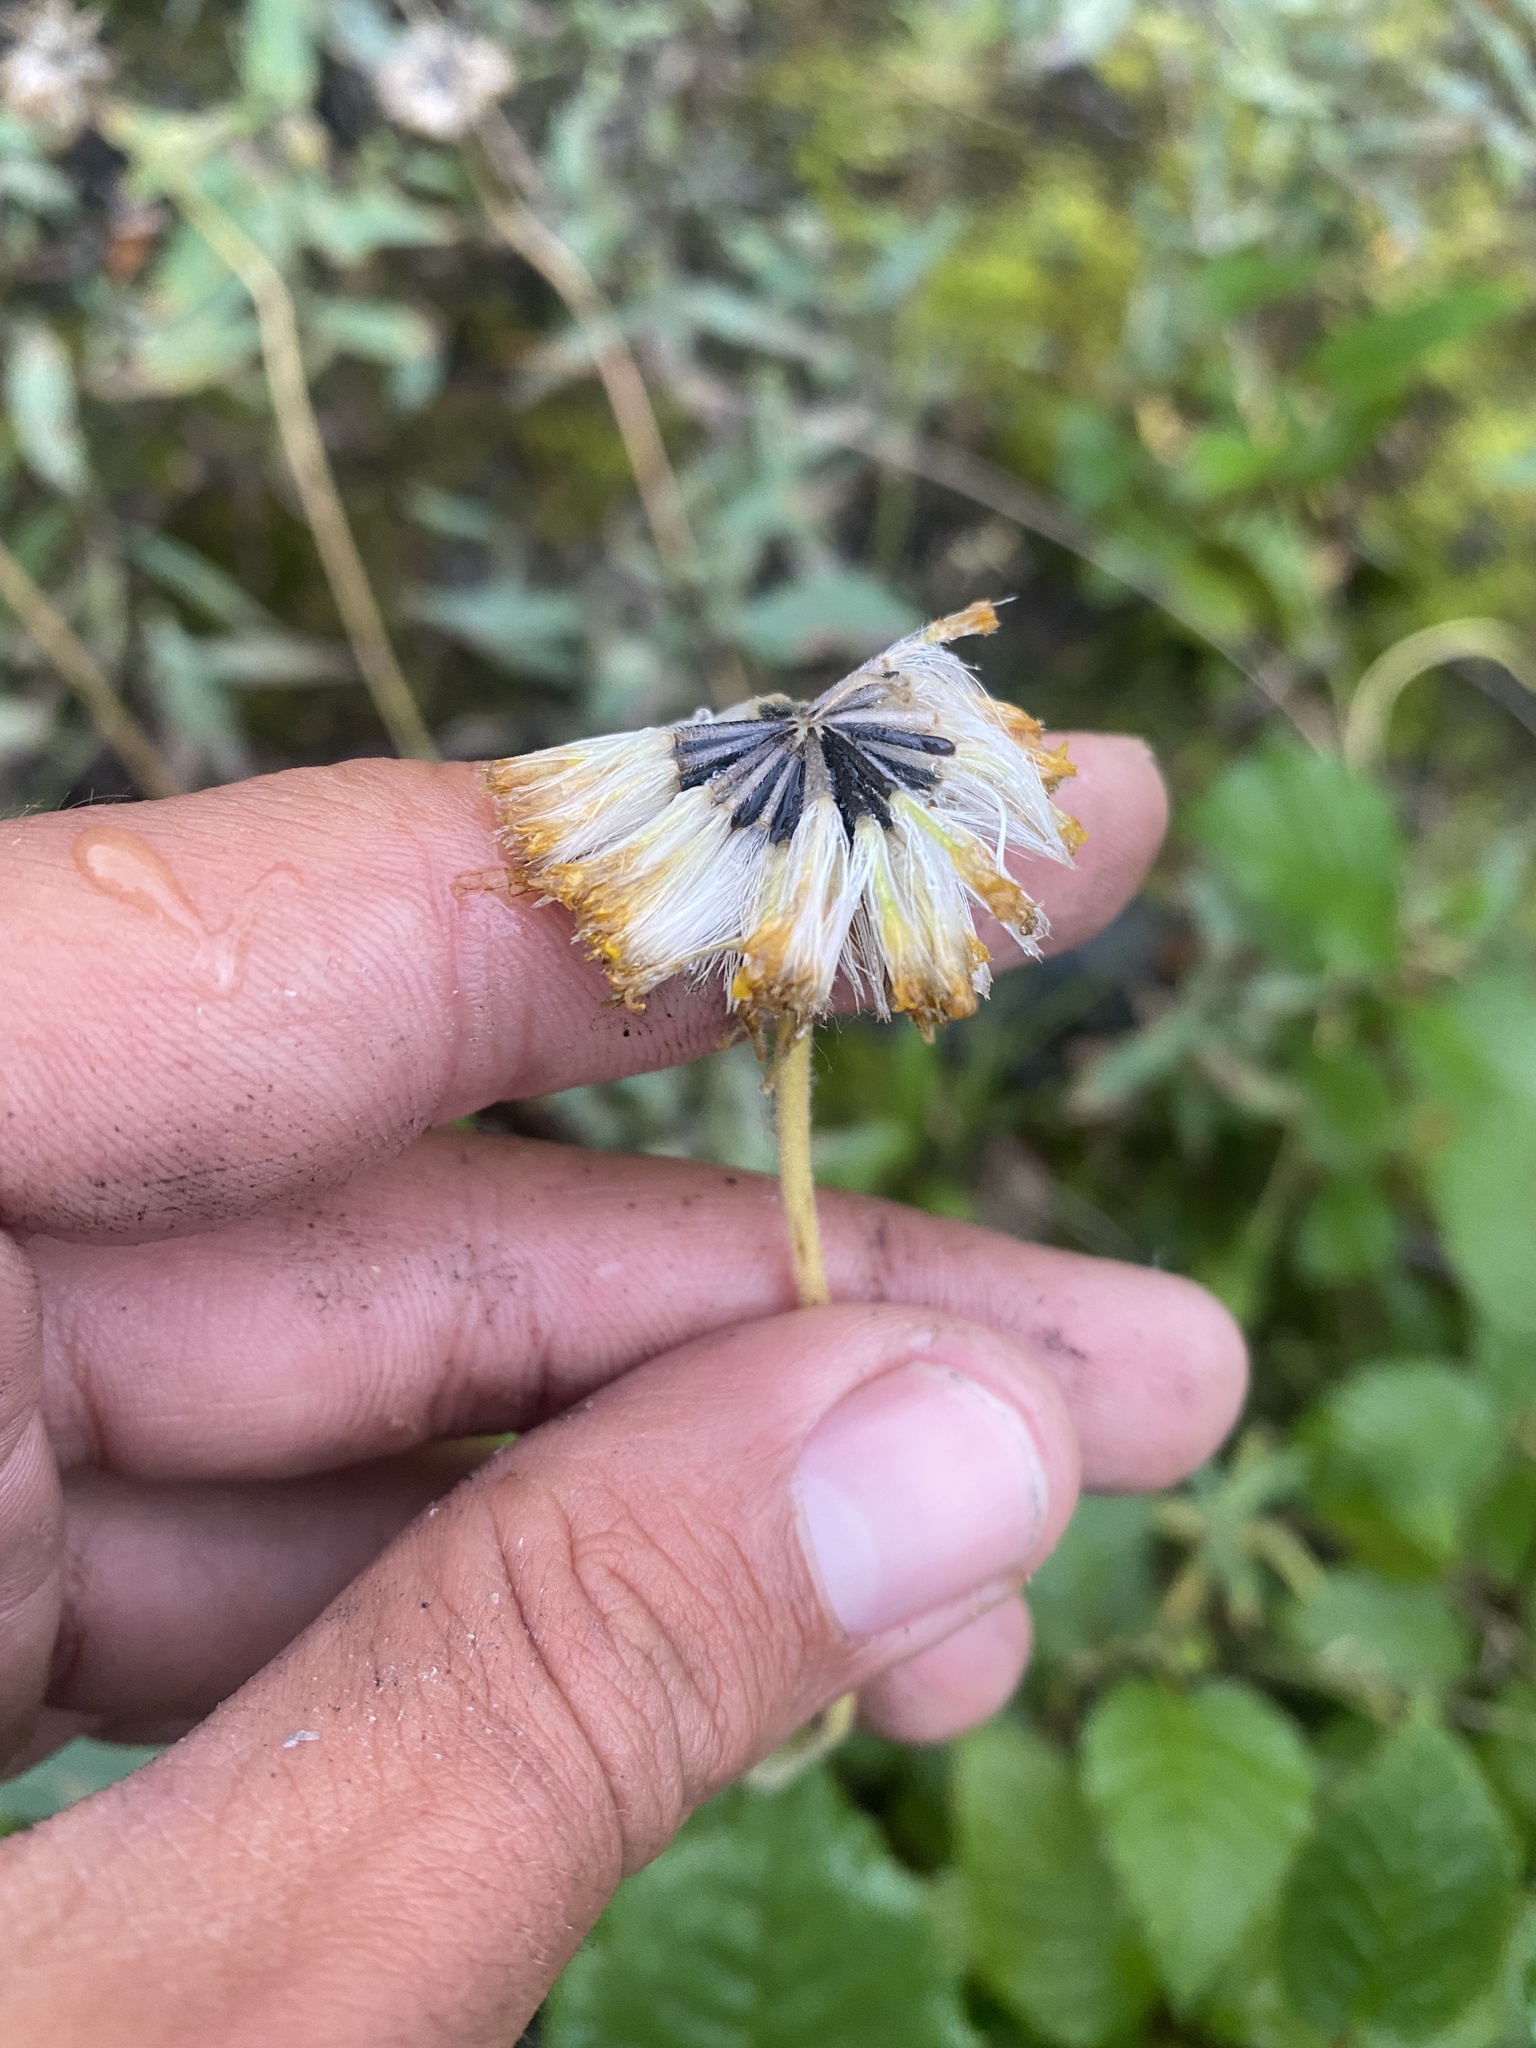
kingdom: Plantae
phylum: Tracheophyta
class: Magnoliopsida
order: Asterales
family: Asteraceae
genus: Arnica
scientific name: Arnica angustifolia
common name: Arctic arnica
